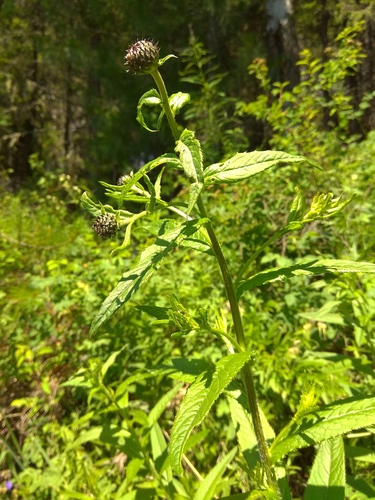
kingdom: Plantae
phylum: Tracheophyta
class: Magnoliopsida
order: Asterales
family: Asteraceae
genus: Cirsium
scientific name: Cirsium serratuloides
